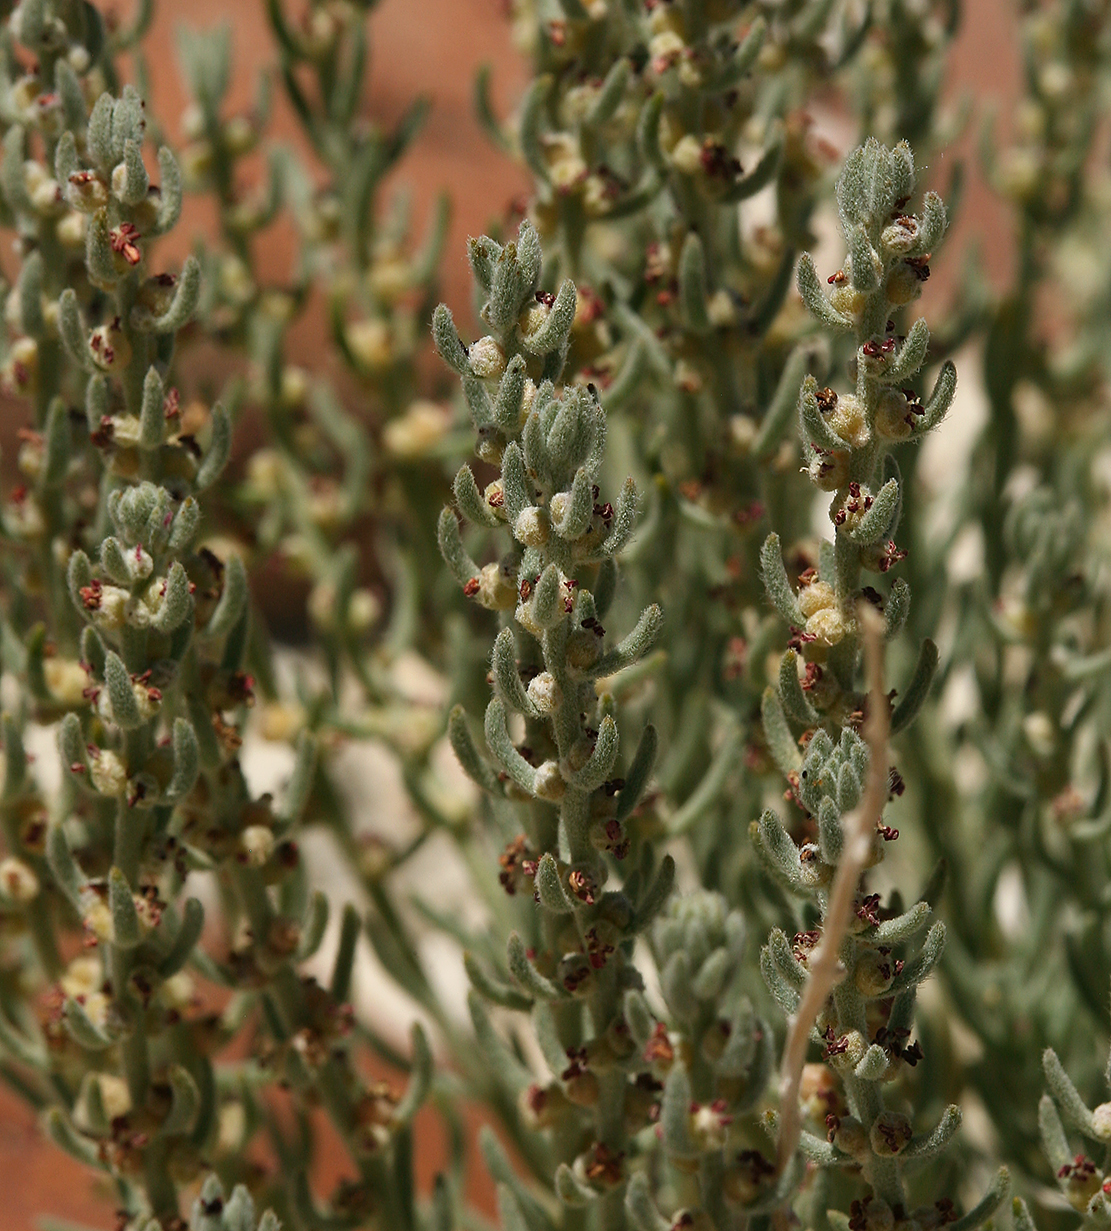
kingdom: Plantae
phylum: Tracheophyta
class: Magnoliopsida
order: Caryophyllales
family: Amaranthaceae
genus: Neokochia
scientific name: Neokochia americana
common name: Perennial summer-cypress
